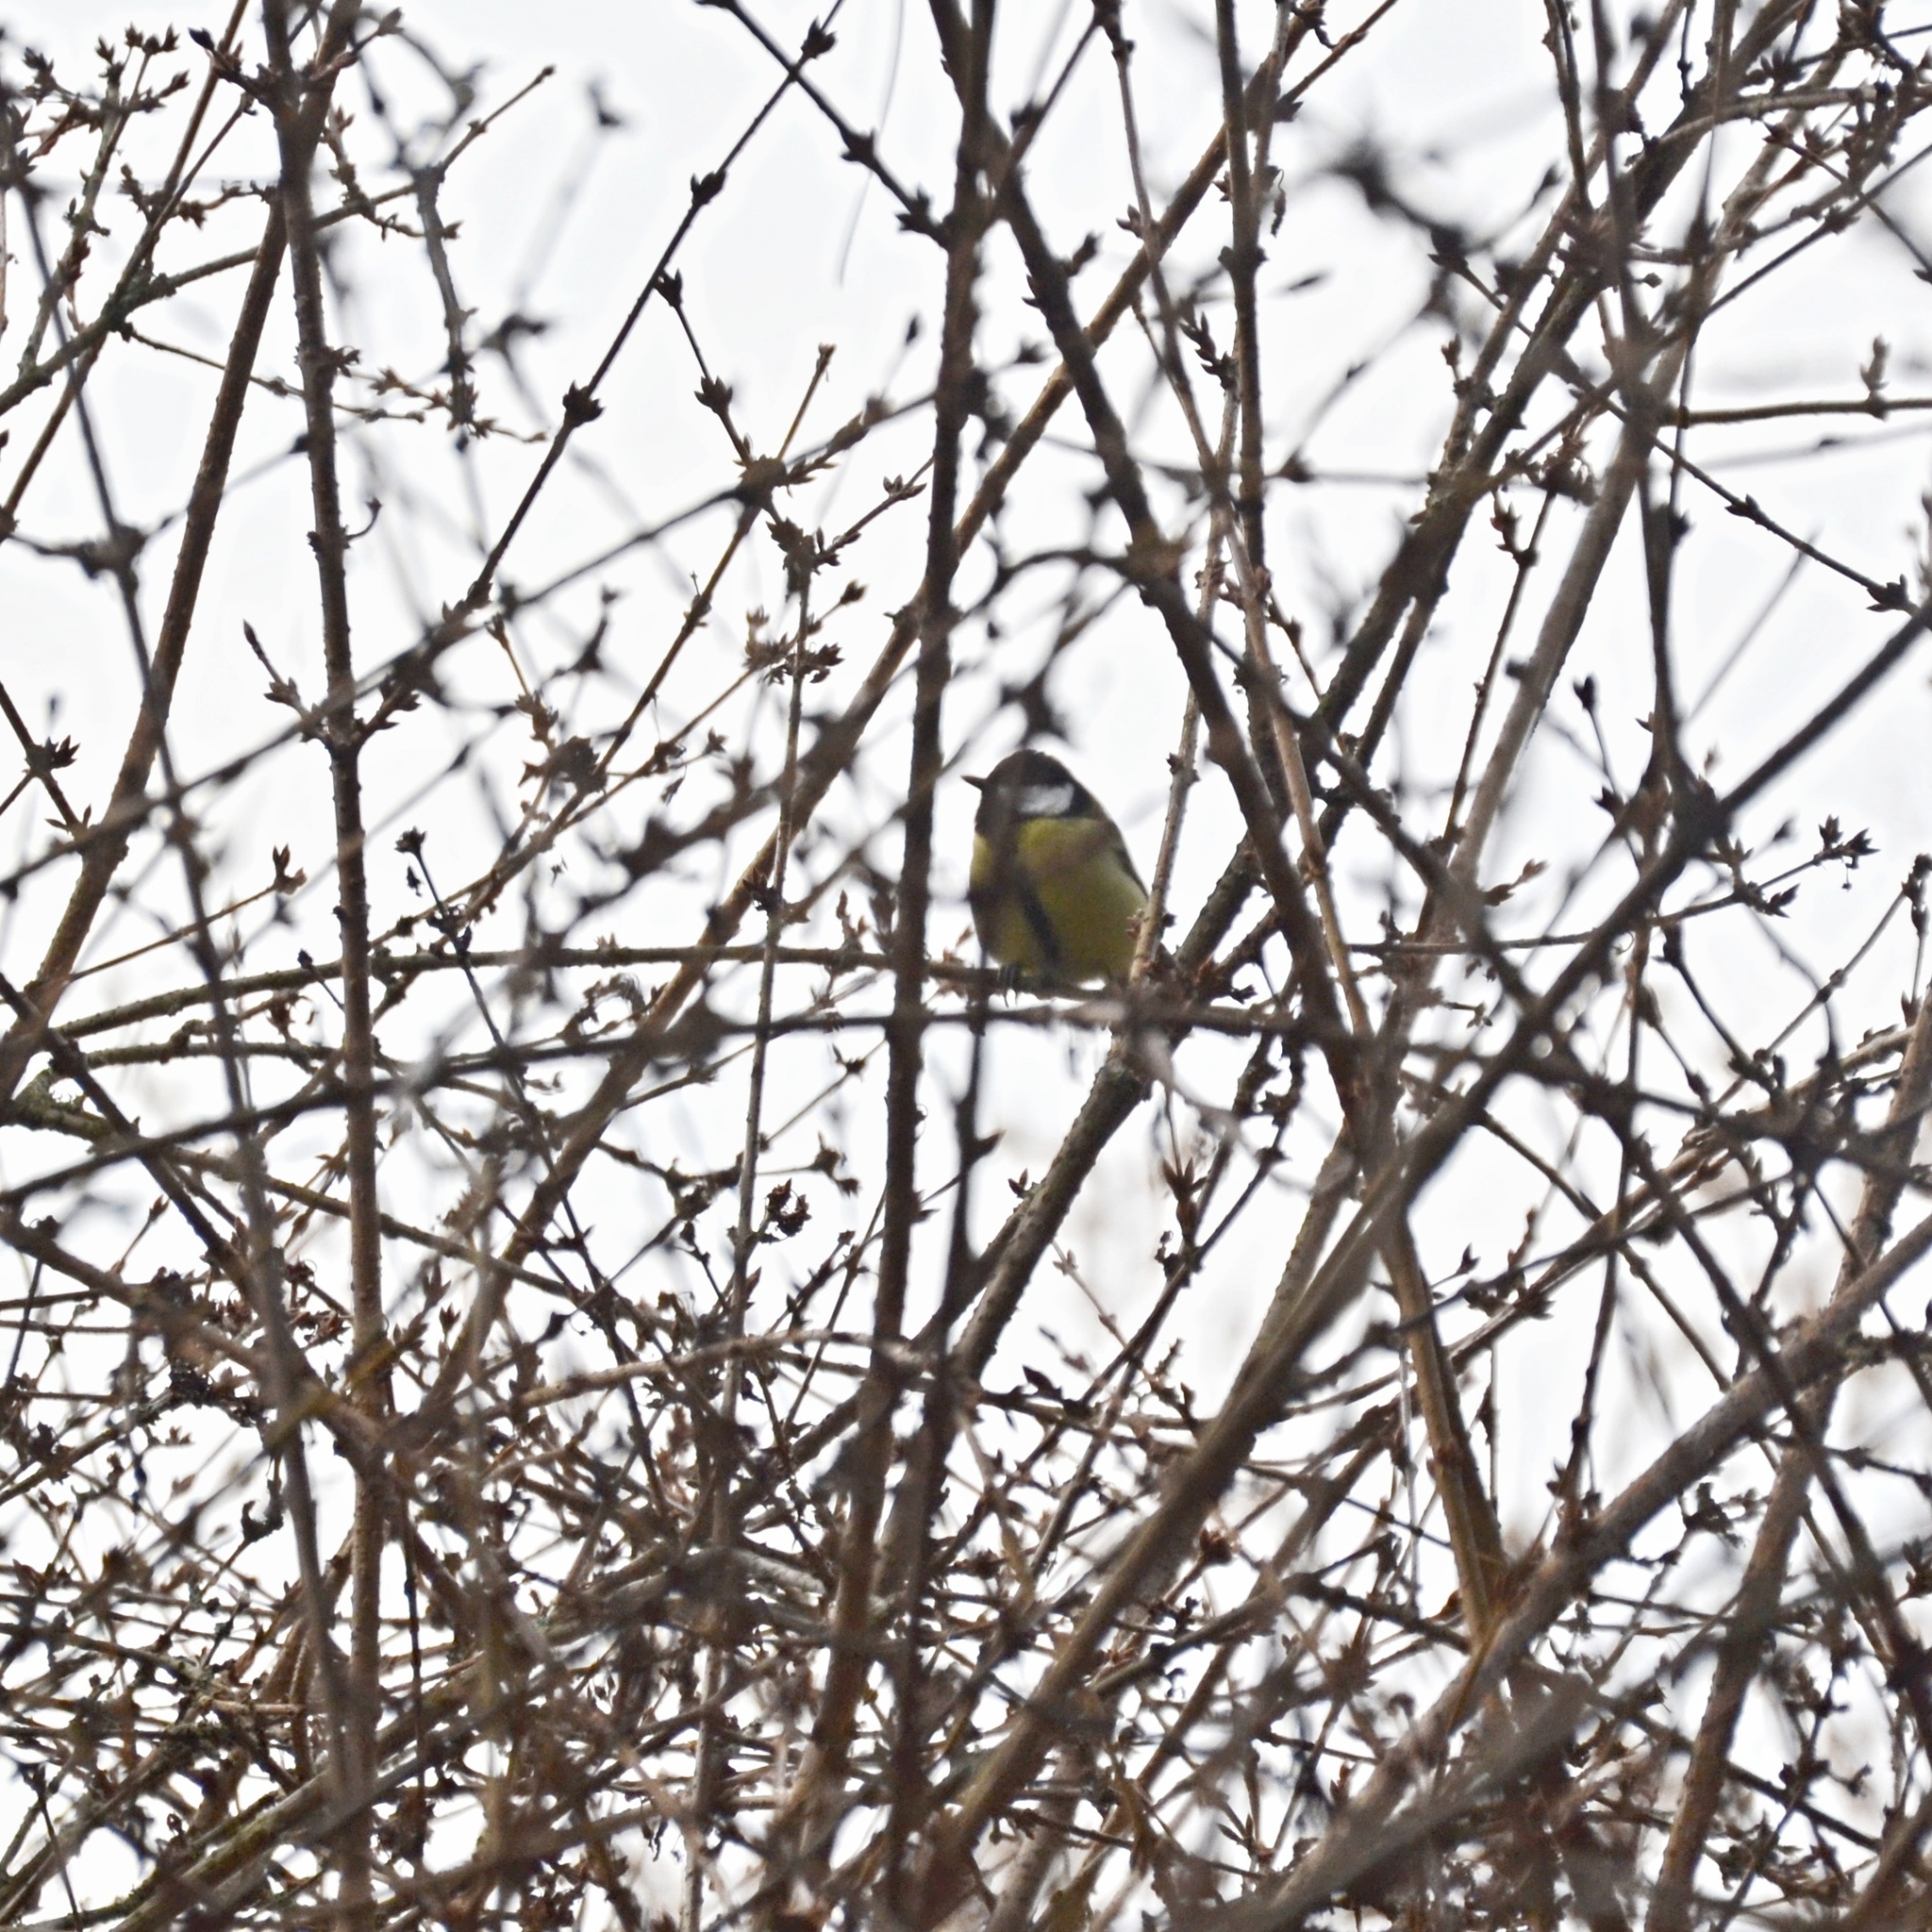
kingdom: Animalia
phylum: Chordata
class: Aves
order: Passeriformes
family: Paridae
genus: Parus
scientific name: Parus major
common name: Great tit
